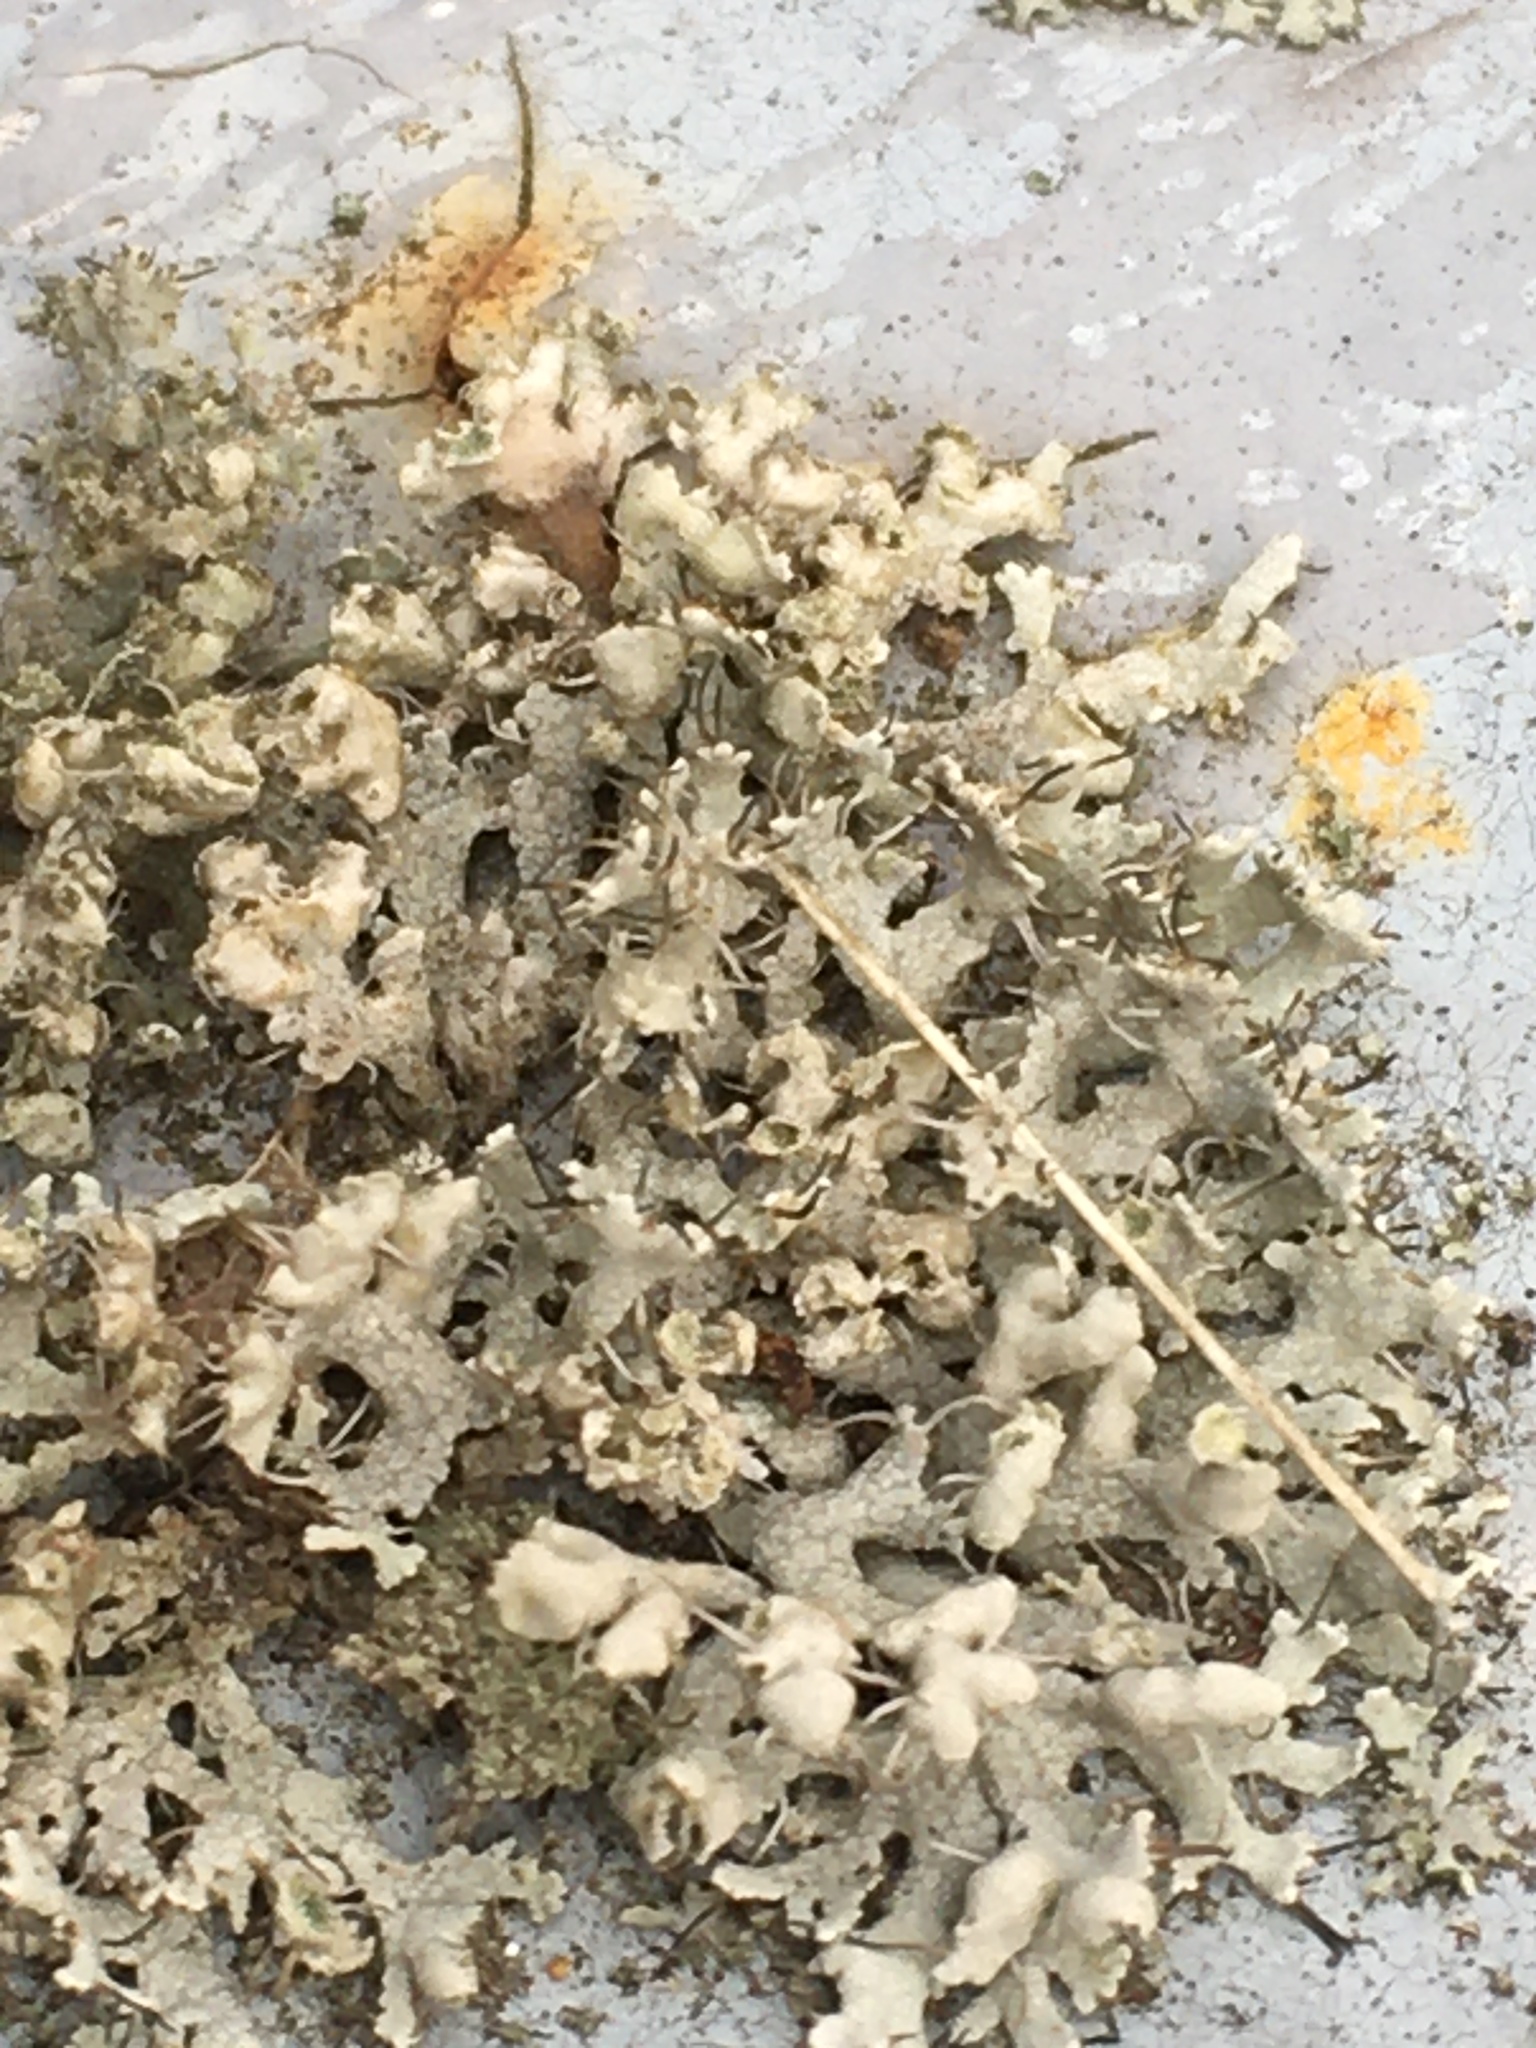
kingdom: Fungi
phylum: Ascomycota
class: Lecanoromycetes
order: Caliciales
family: Physciaceae
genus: Physcia
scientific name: Physcia adscendens
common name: Hooded rosette lichen
